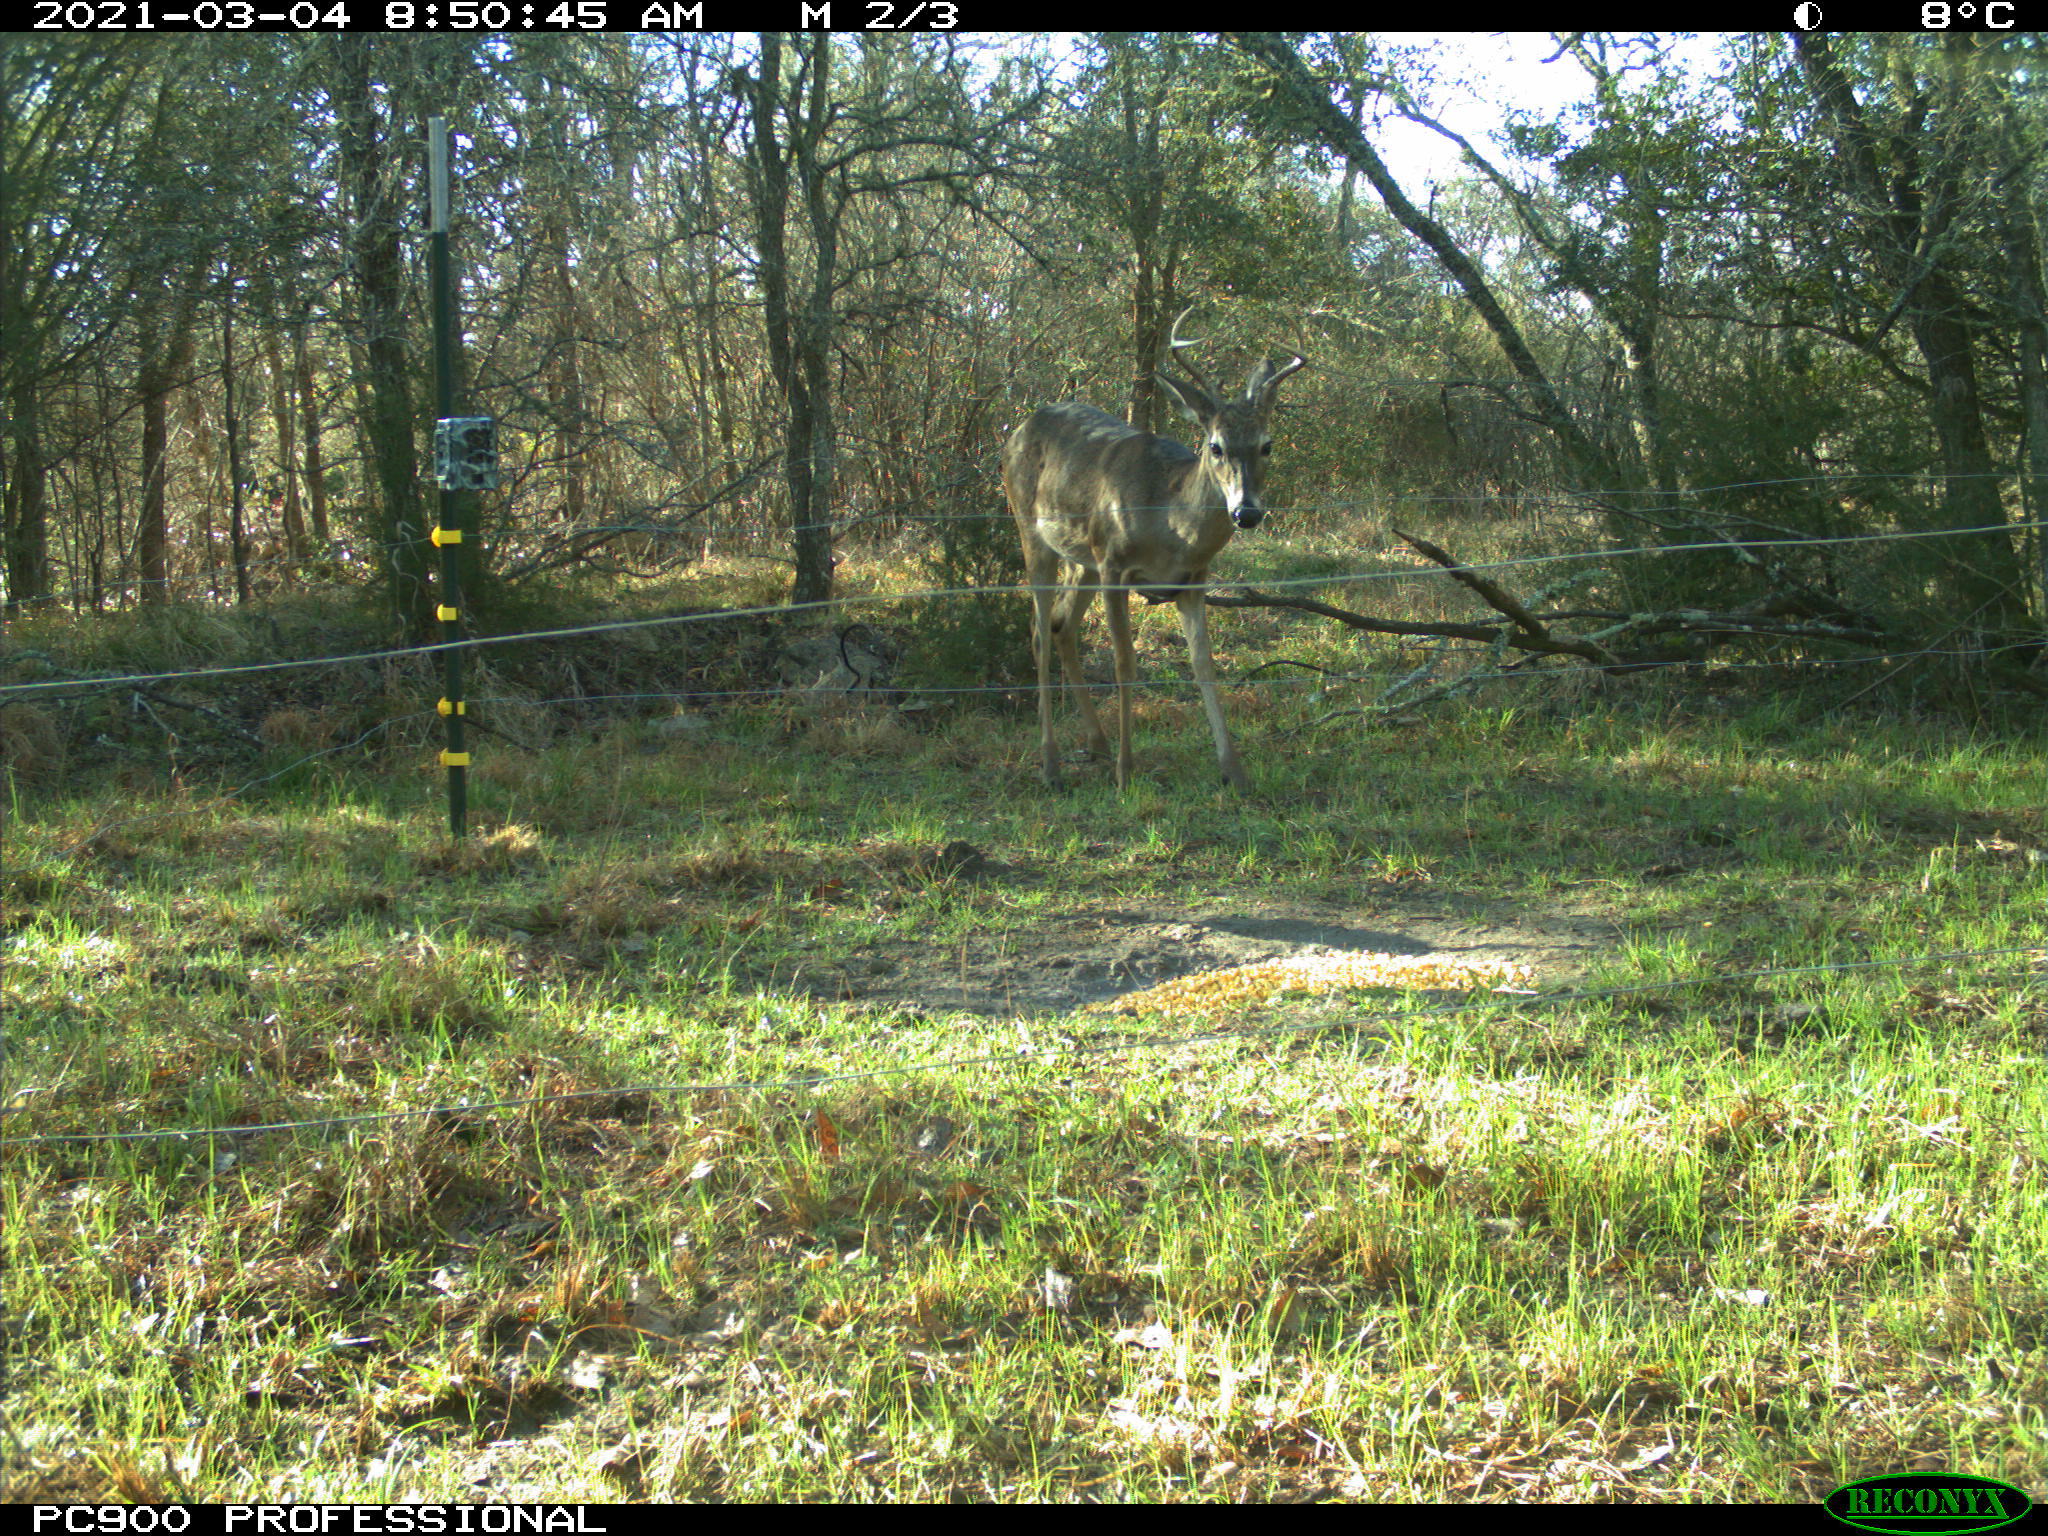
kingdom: Animalia
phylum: Chordata
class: Mammalia
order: Artiodactyla
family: Cervidae
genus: Odocoileus
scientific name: Odocoileus virginianus
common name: White-tailed deer
